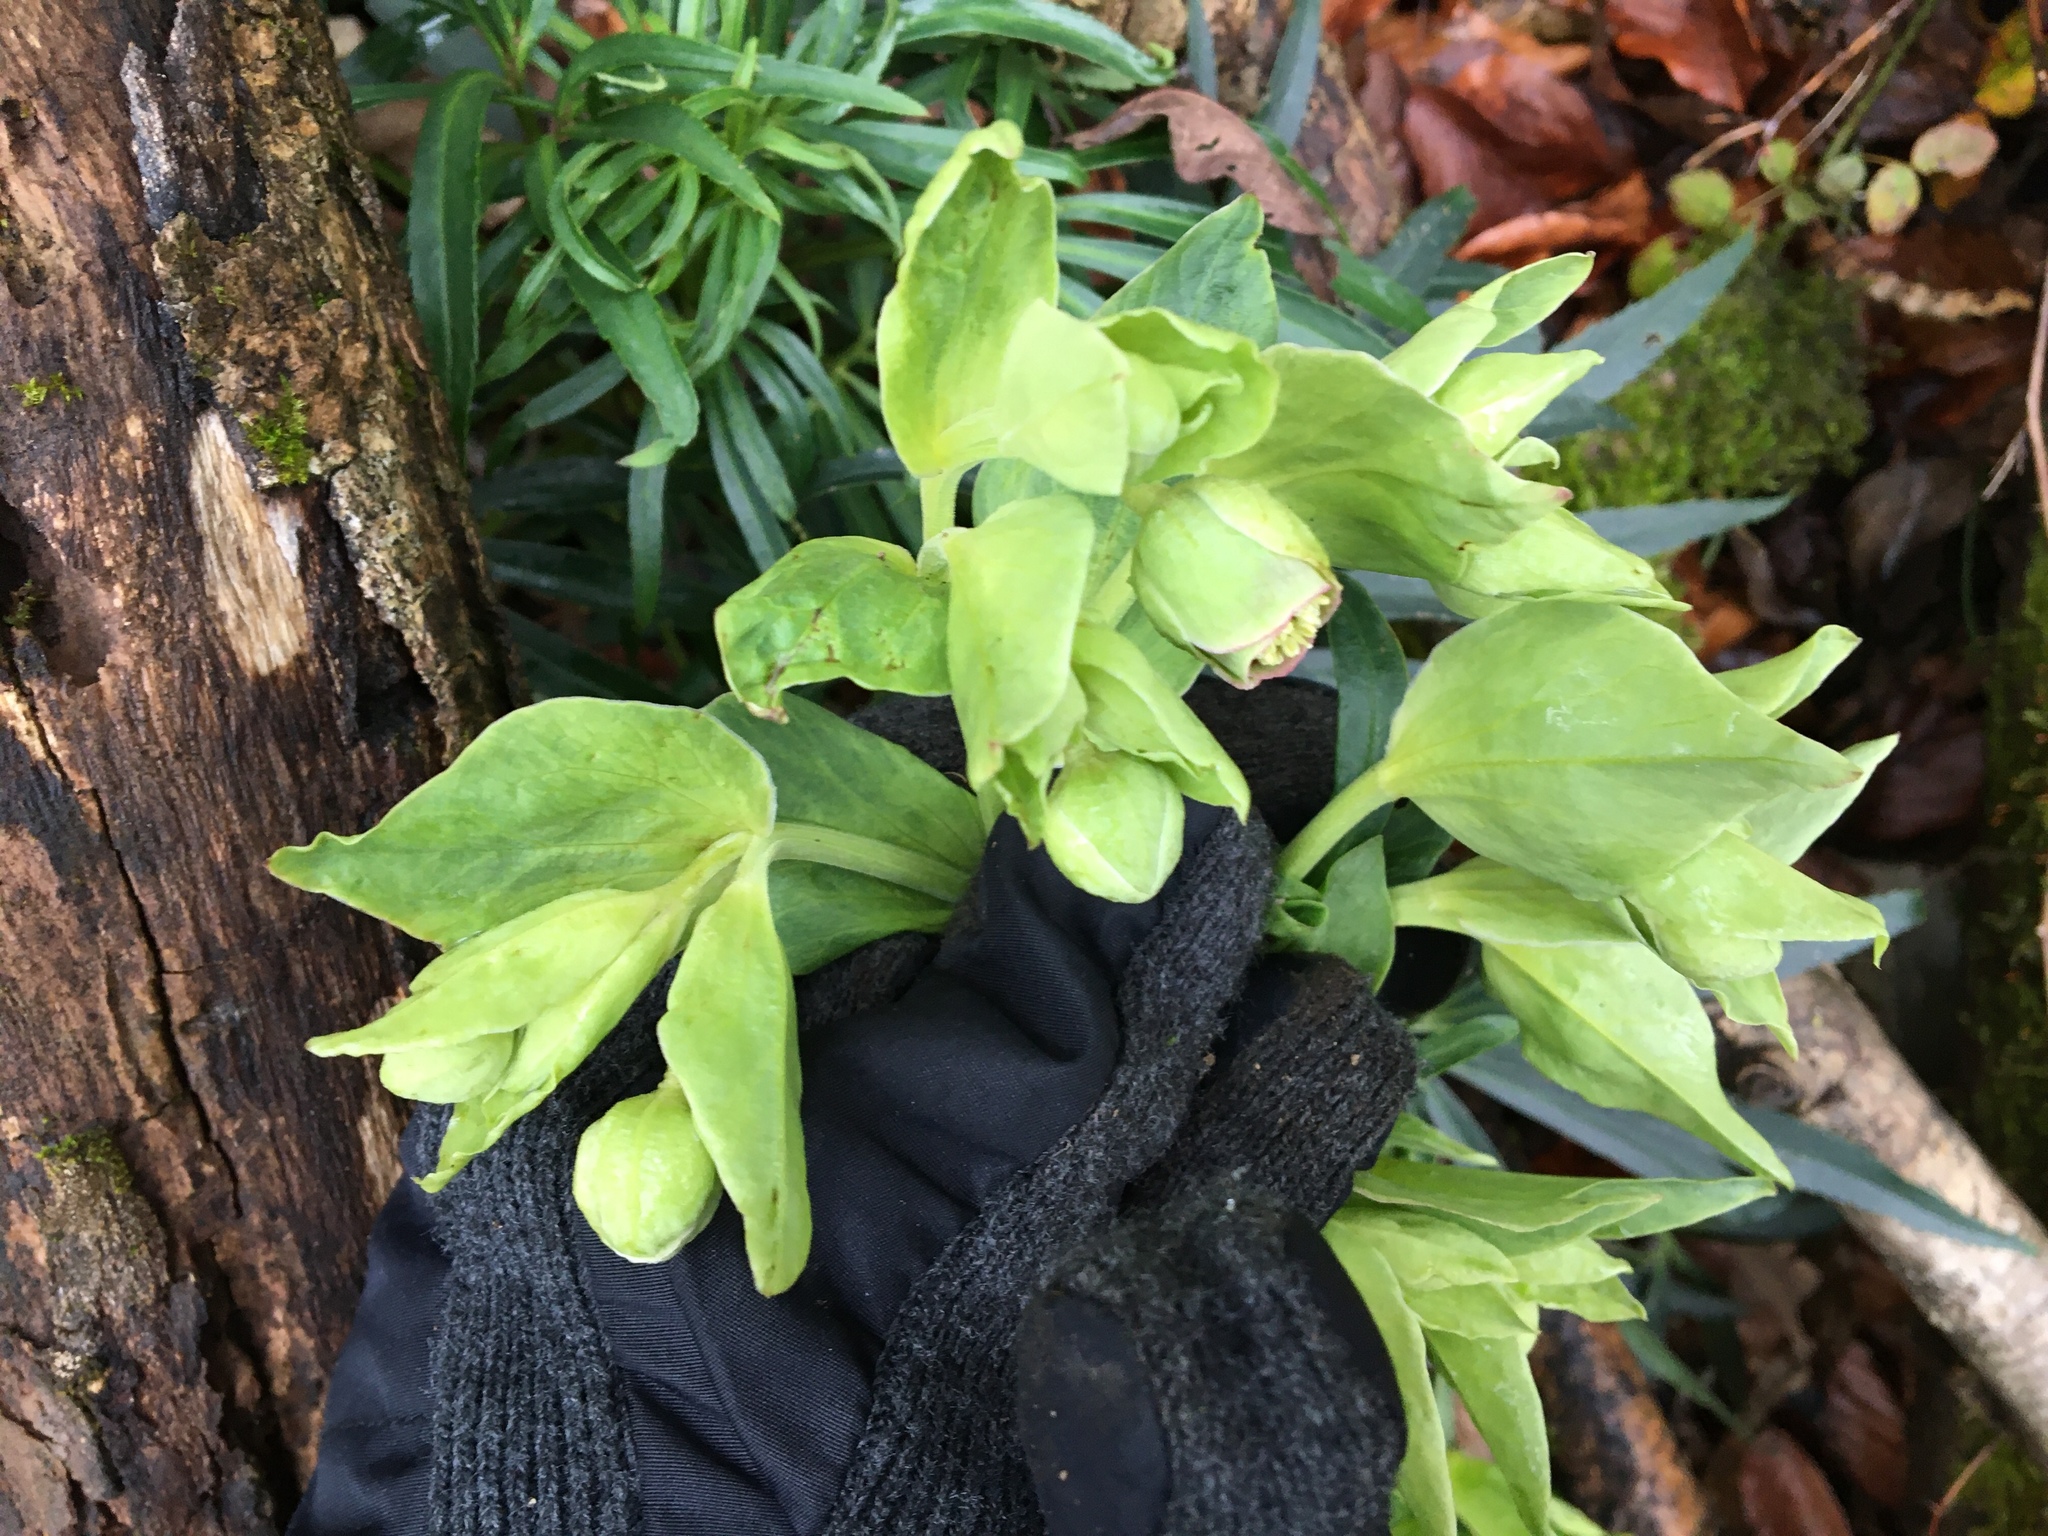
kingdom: Plantae
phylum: Tracheophyta
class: Magnoliopsida
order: Ranunculales
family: Ranunculaceae
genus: Helleborus
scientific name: Helleborus foetidus
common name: Stinking hellebore
